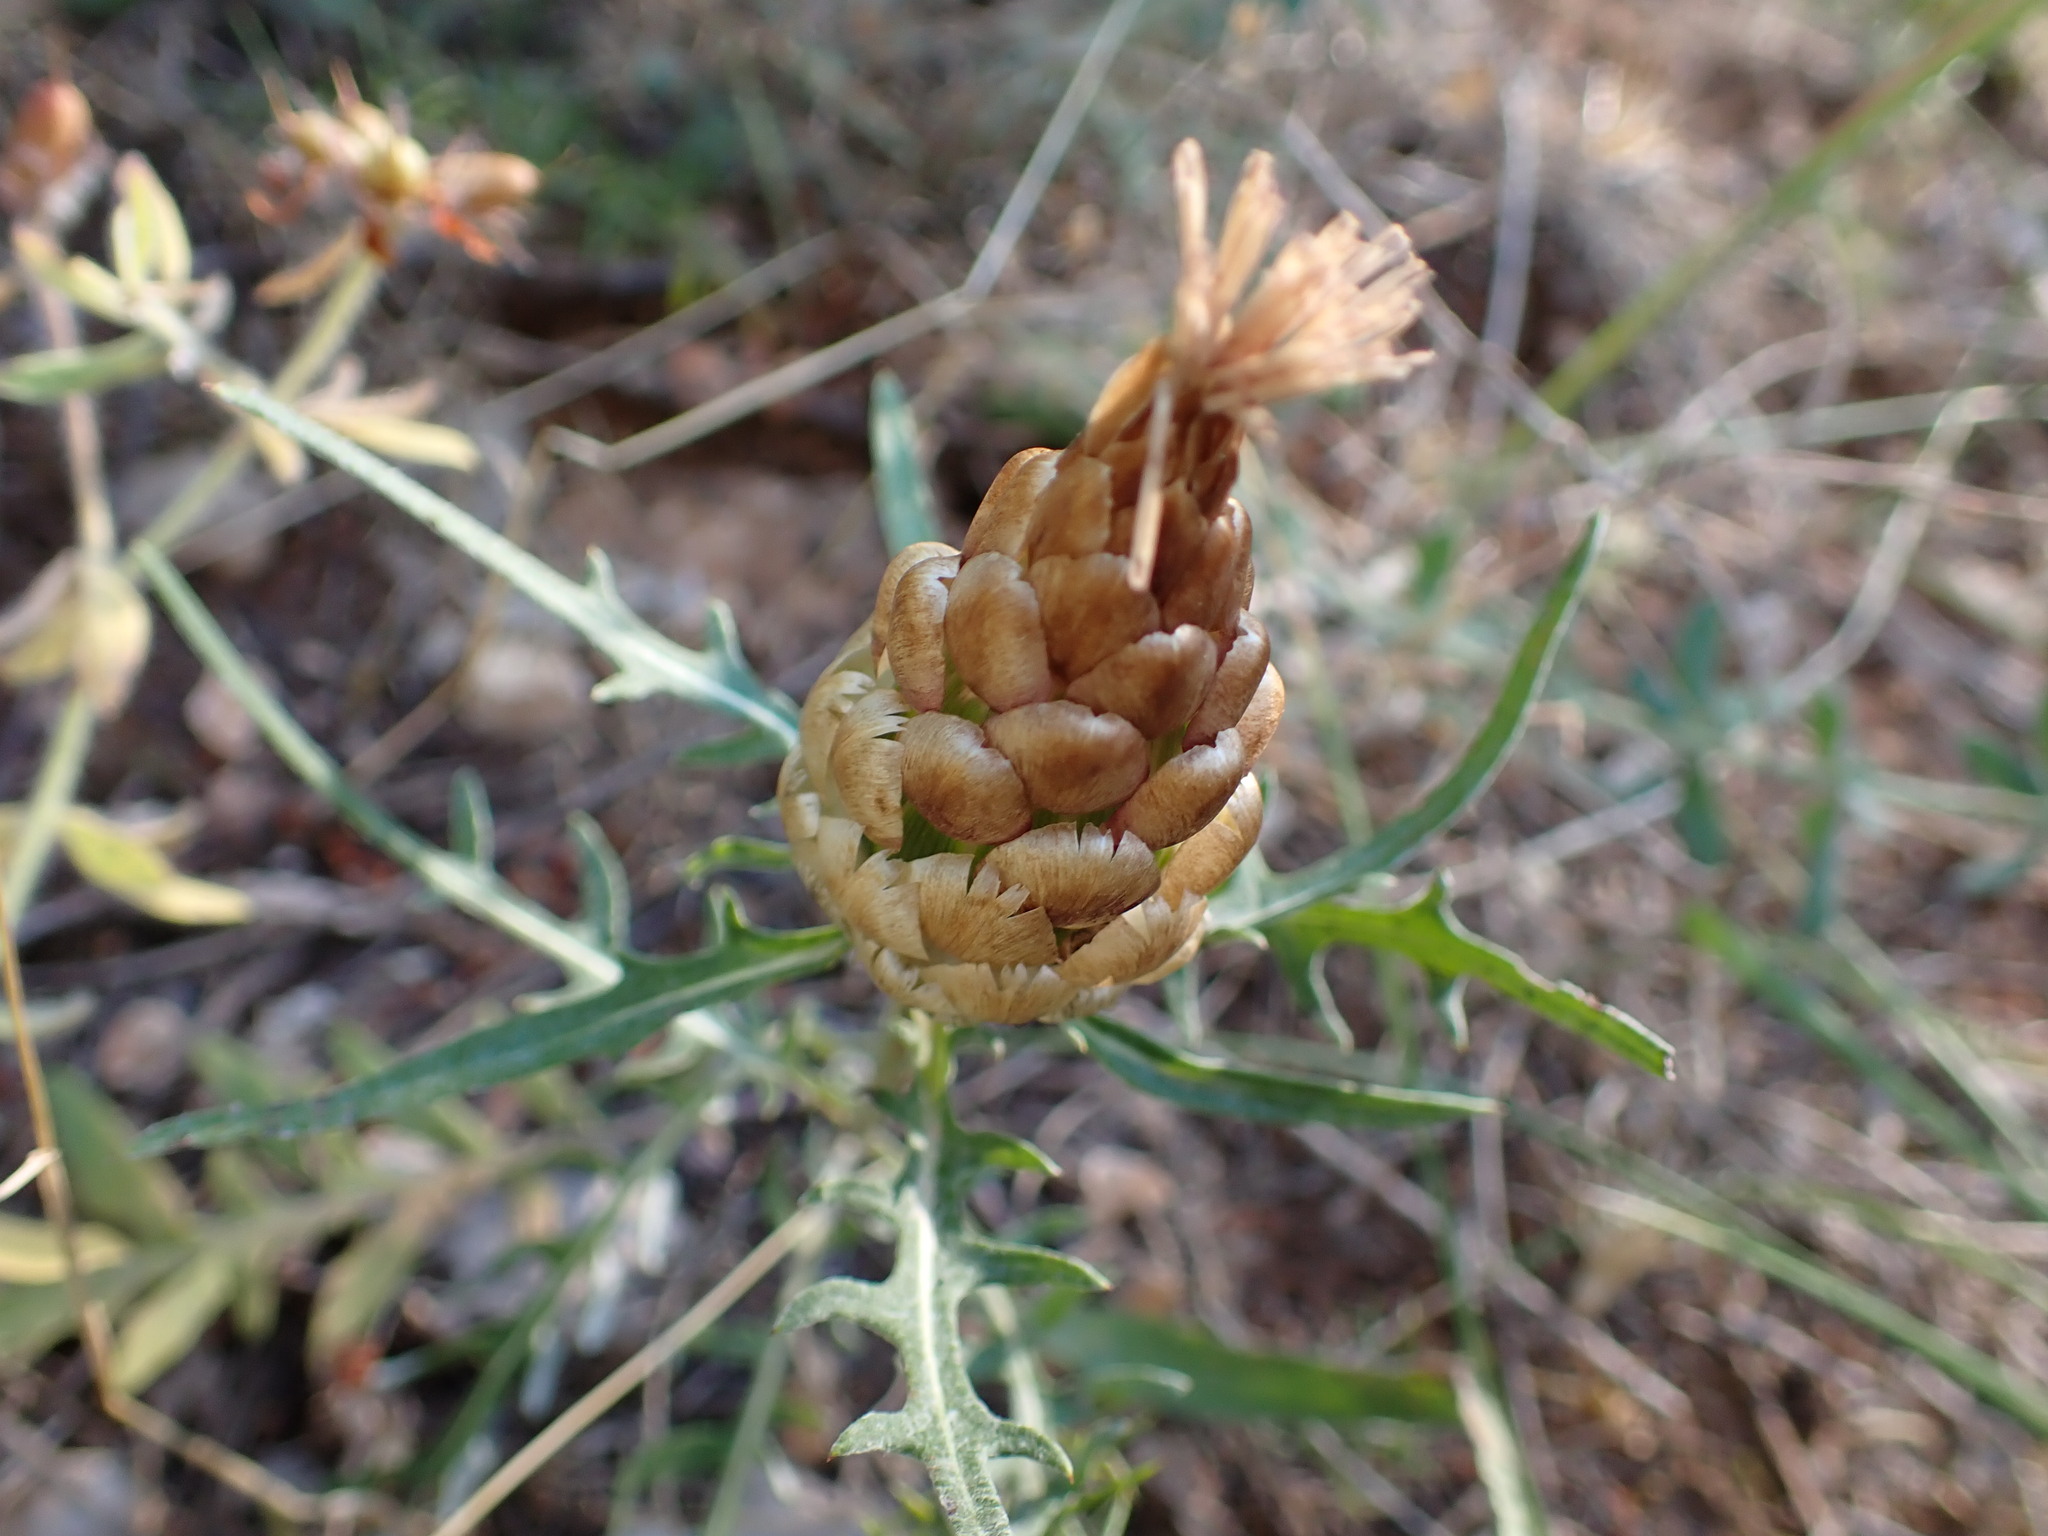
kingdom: Plantae
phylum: Tracheophyta
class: Magnoliopsida
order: Asterales
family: Asteraceae
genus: Leuzea
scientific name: Leuzea conifera
